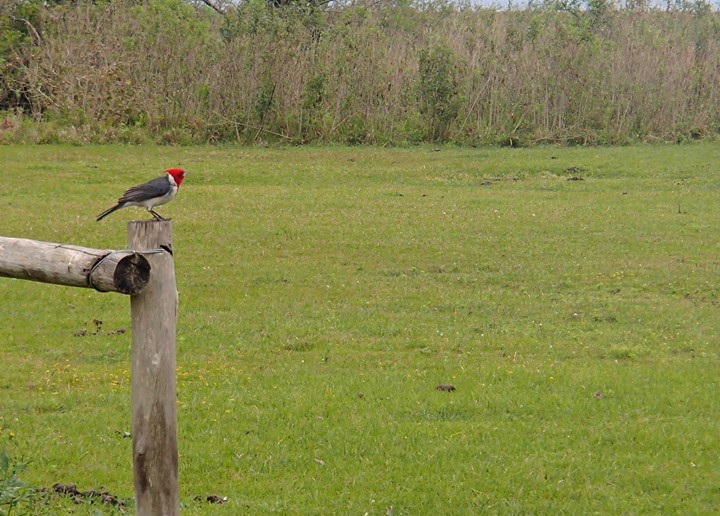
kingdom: Animalia
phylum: Chordata
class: Aves
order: Passeriformes
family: Thraupidae
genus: Paroaria
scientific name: Paroaria coronata
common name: Red-crested cardinal
